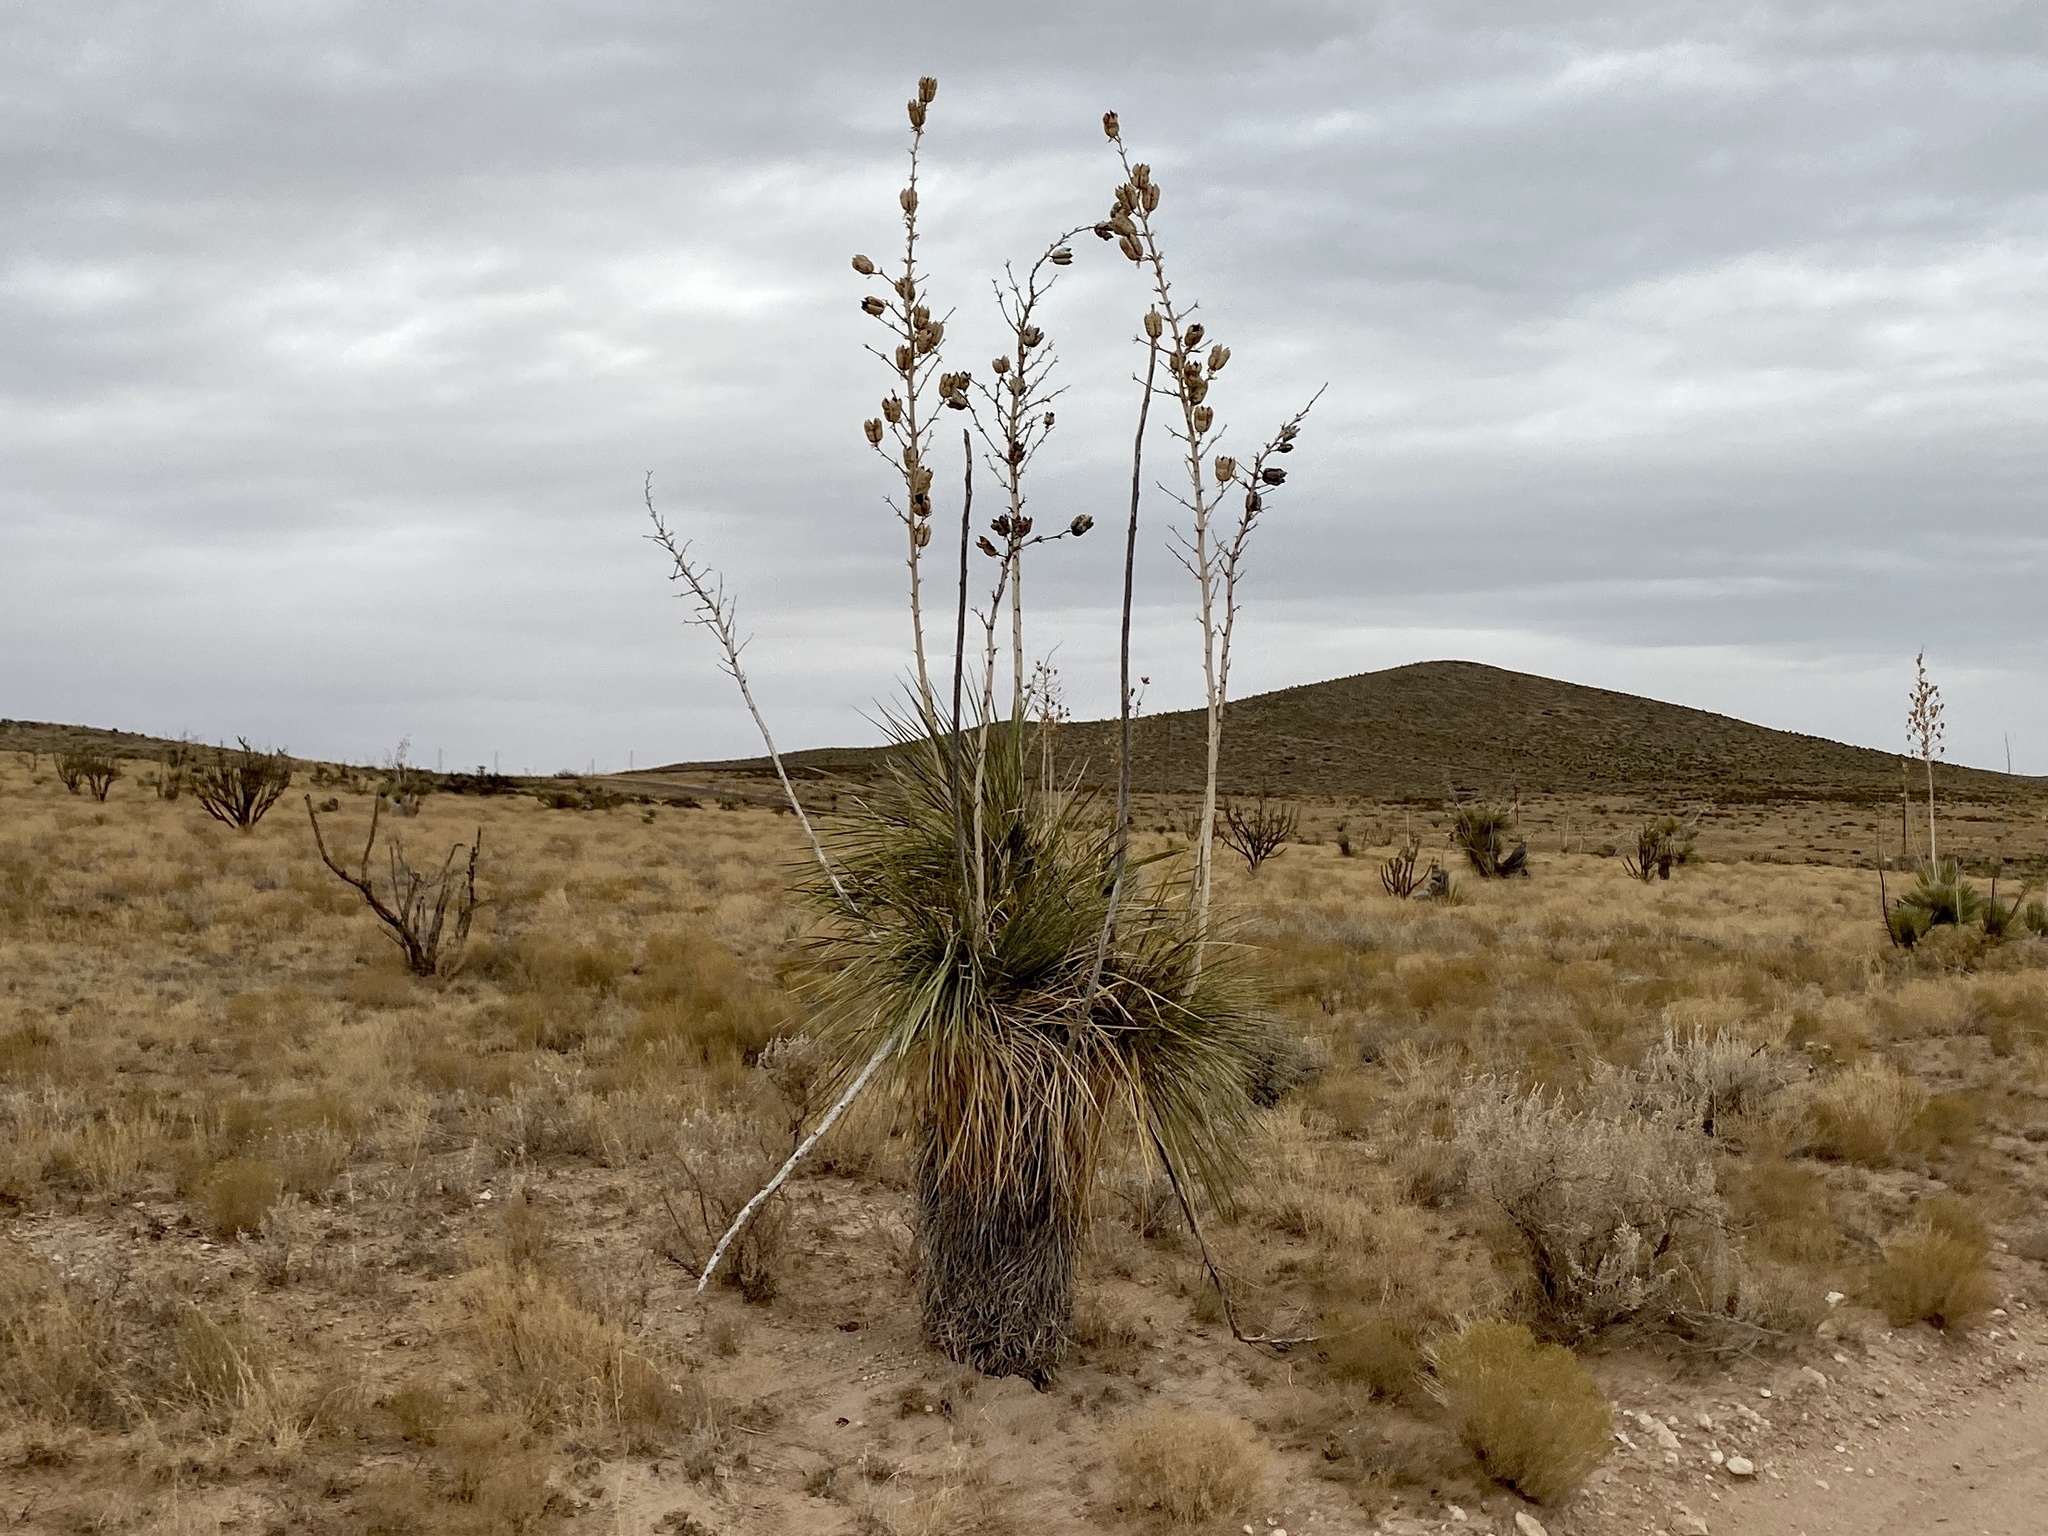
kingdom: Plantae
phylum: Tracheophyta
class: Liliopsida
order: Asparagales
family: Asparagaceae
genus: Yucca
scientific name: Yucca elata
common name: Palmella
